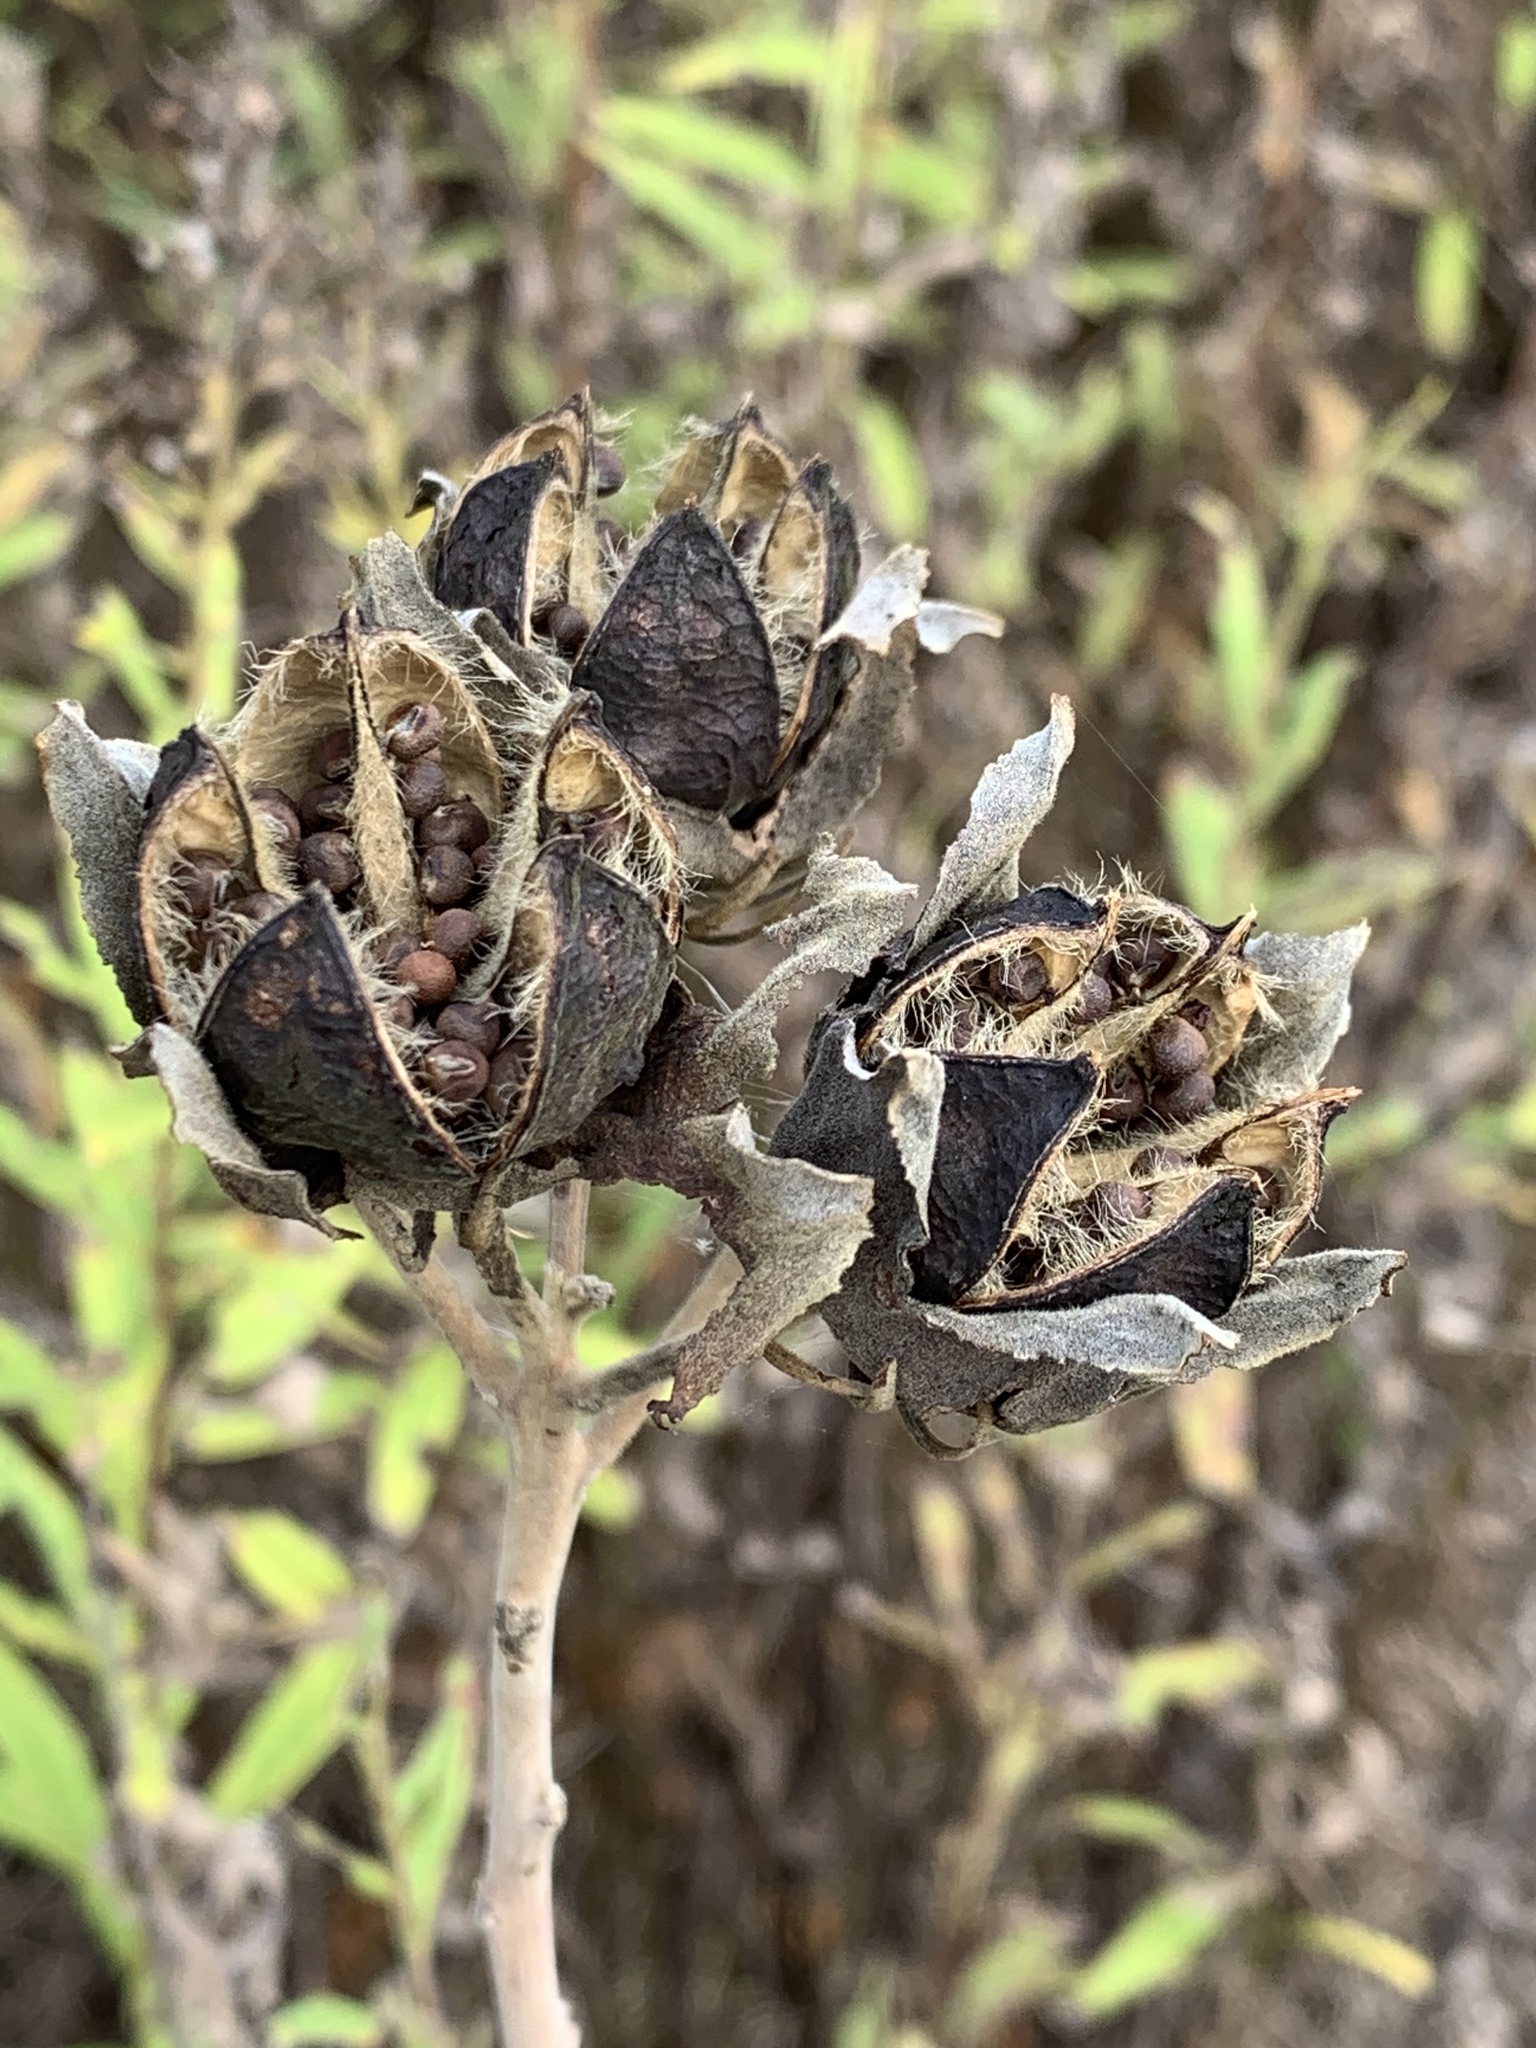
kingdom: Plantae
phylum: Tracheophyta
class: Magnoliopsida
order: Malvales
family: Malvaceae
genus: Hibiscus
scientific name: Hibiscus moscheutos
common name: Common rose-mallow
